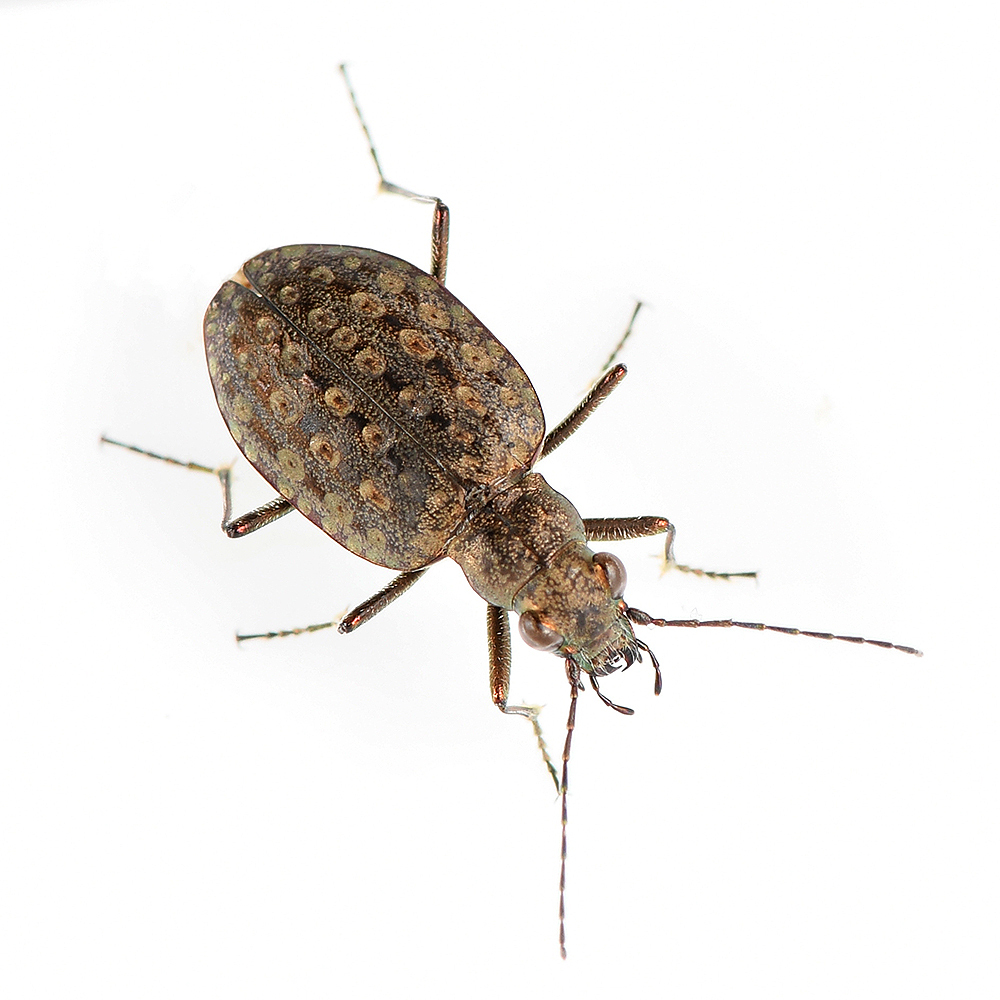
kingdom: Animalia
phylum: Arthropoda
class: Insecta
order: Coleoptera
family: Carabidae
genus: Opisthius
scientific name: Opisthius richardsoni
